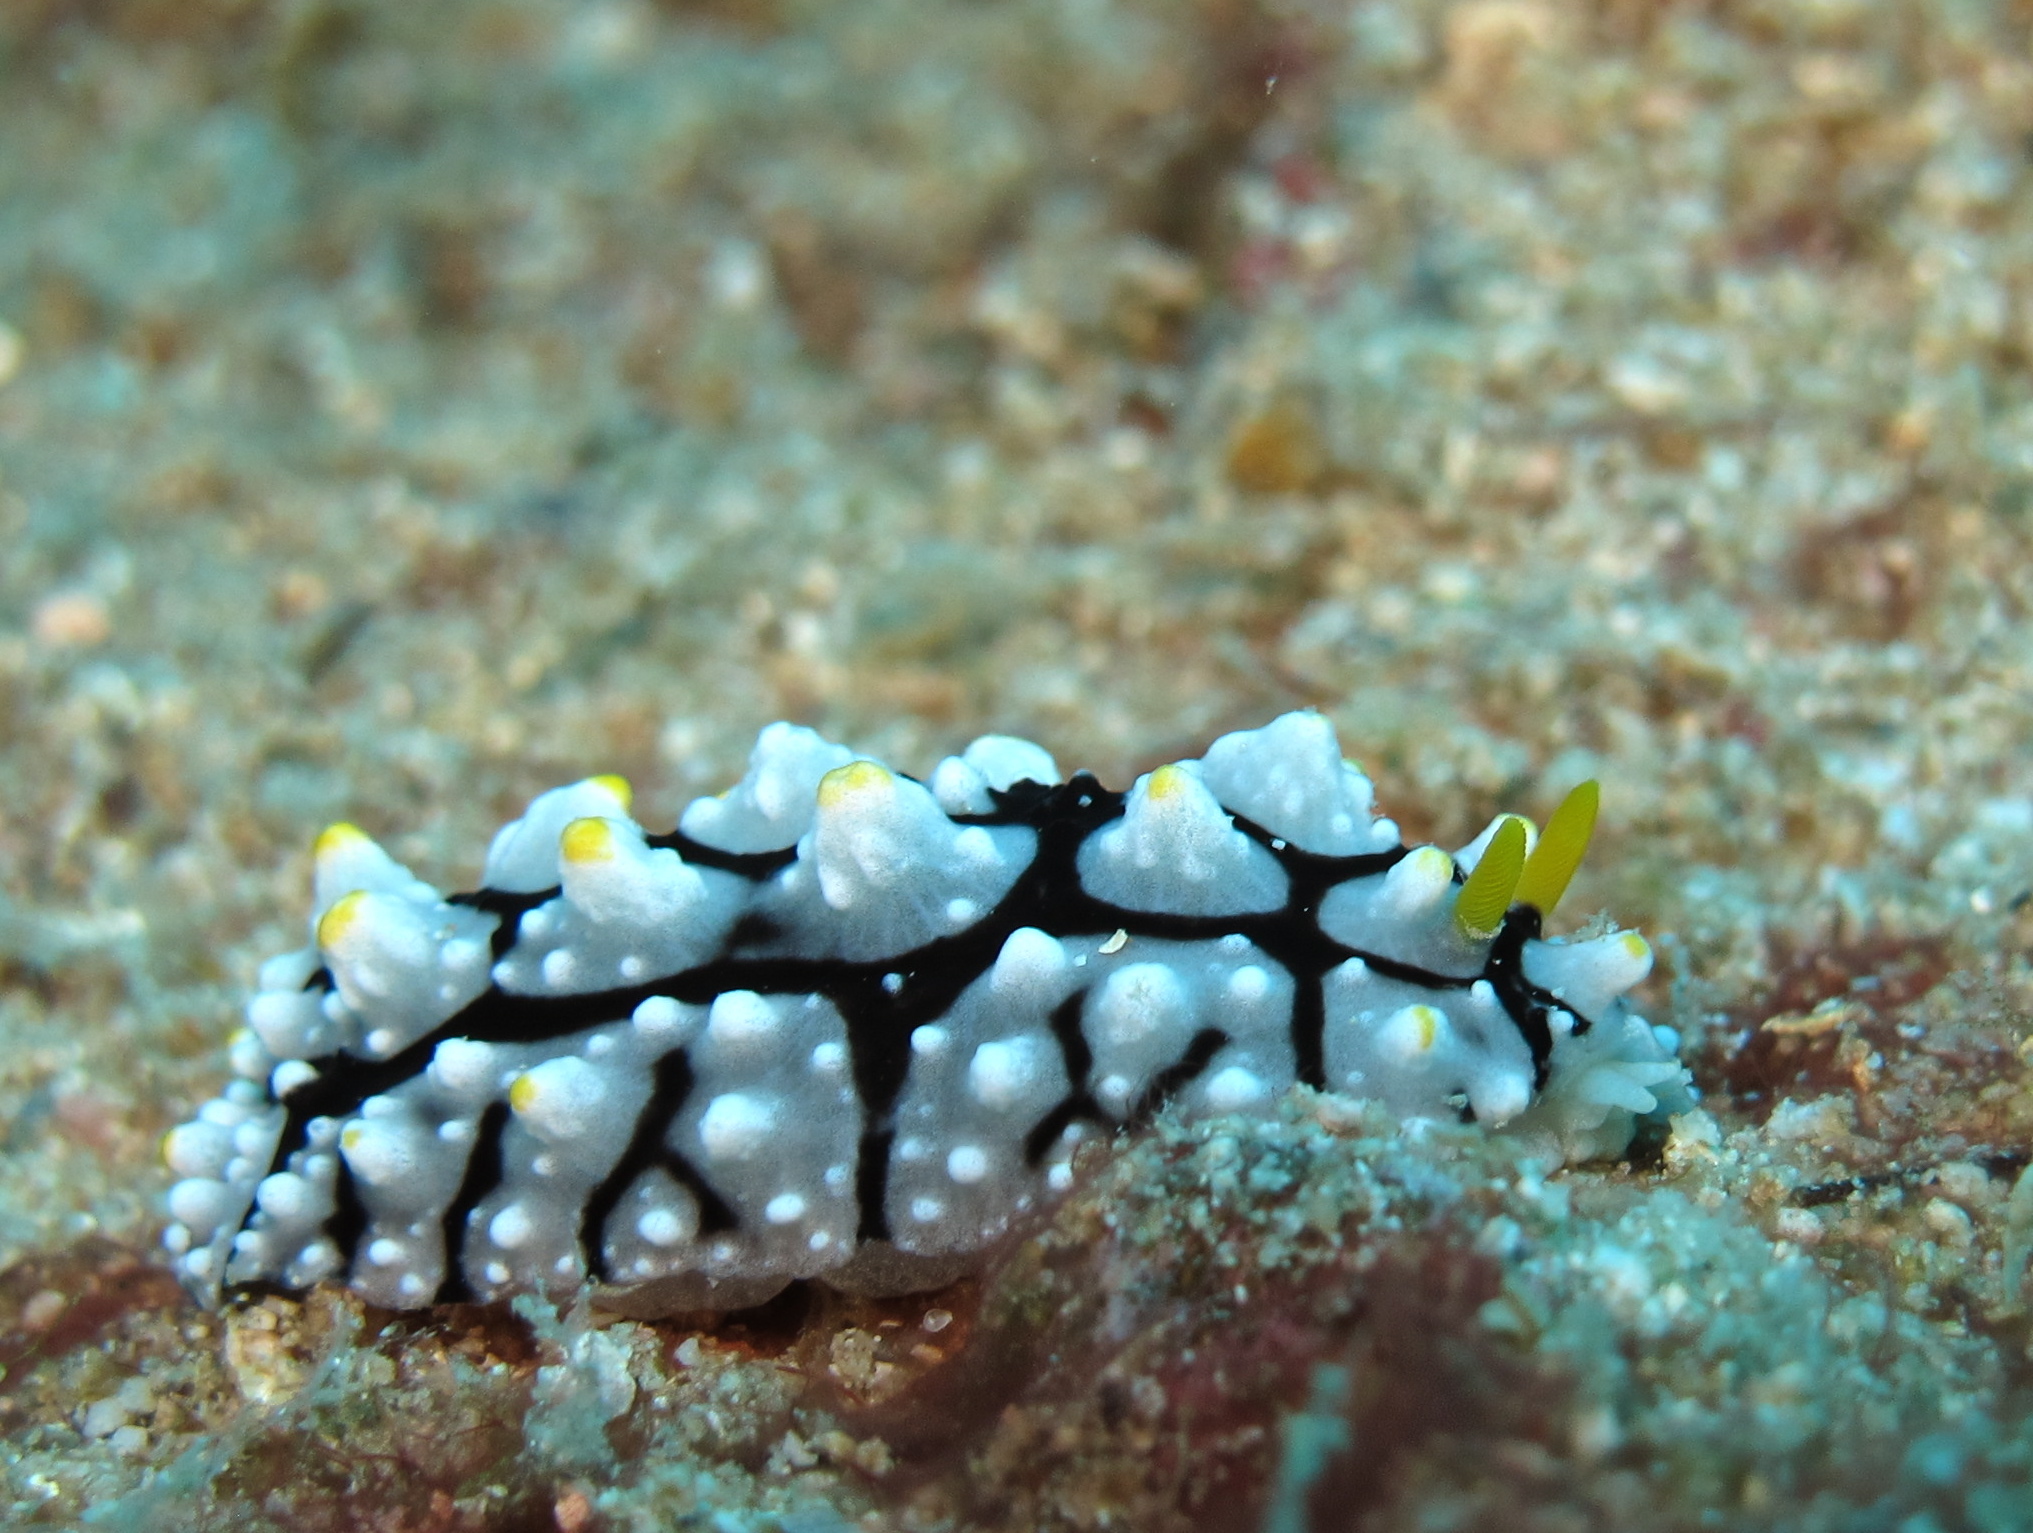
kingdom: Animalia
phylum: Mollusca
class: Gastropoda
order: Nudibranchia
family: Phyllidiidae
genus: Phyllidia
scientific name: Phyllidia elegans
